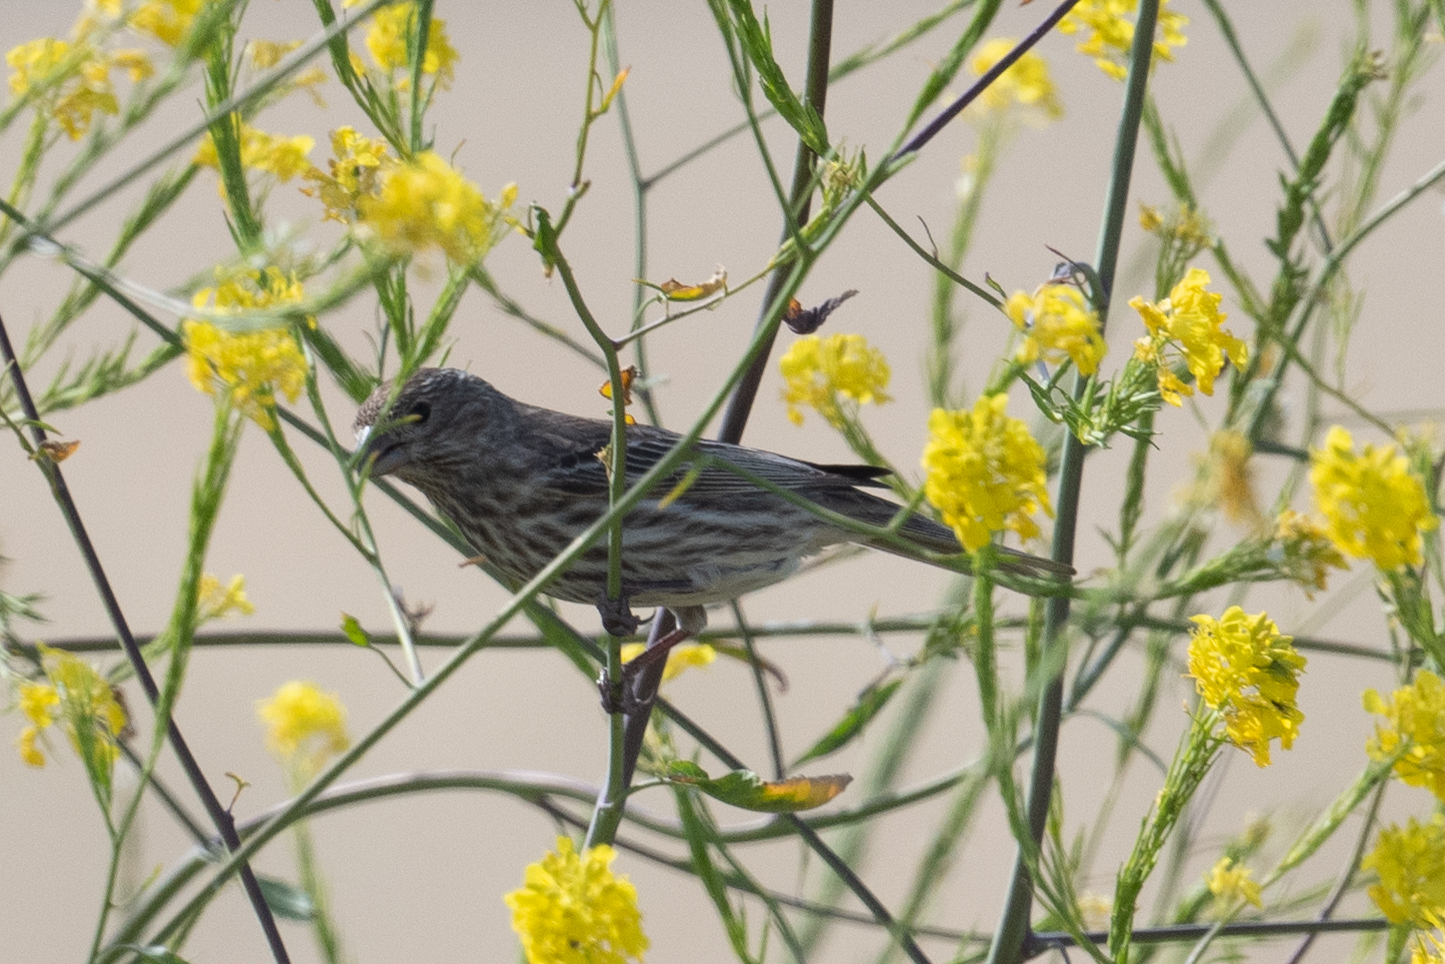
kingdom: Animalia
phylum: Chordata
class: Aves
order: Passeriformes
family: Fringillidae
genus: Haemorhous
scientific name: Haemorhous mexicanus
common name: House finch
